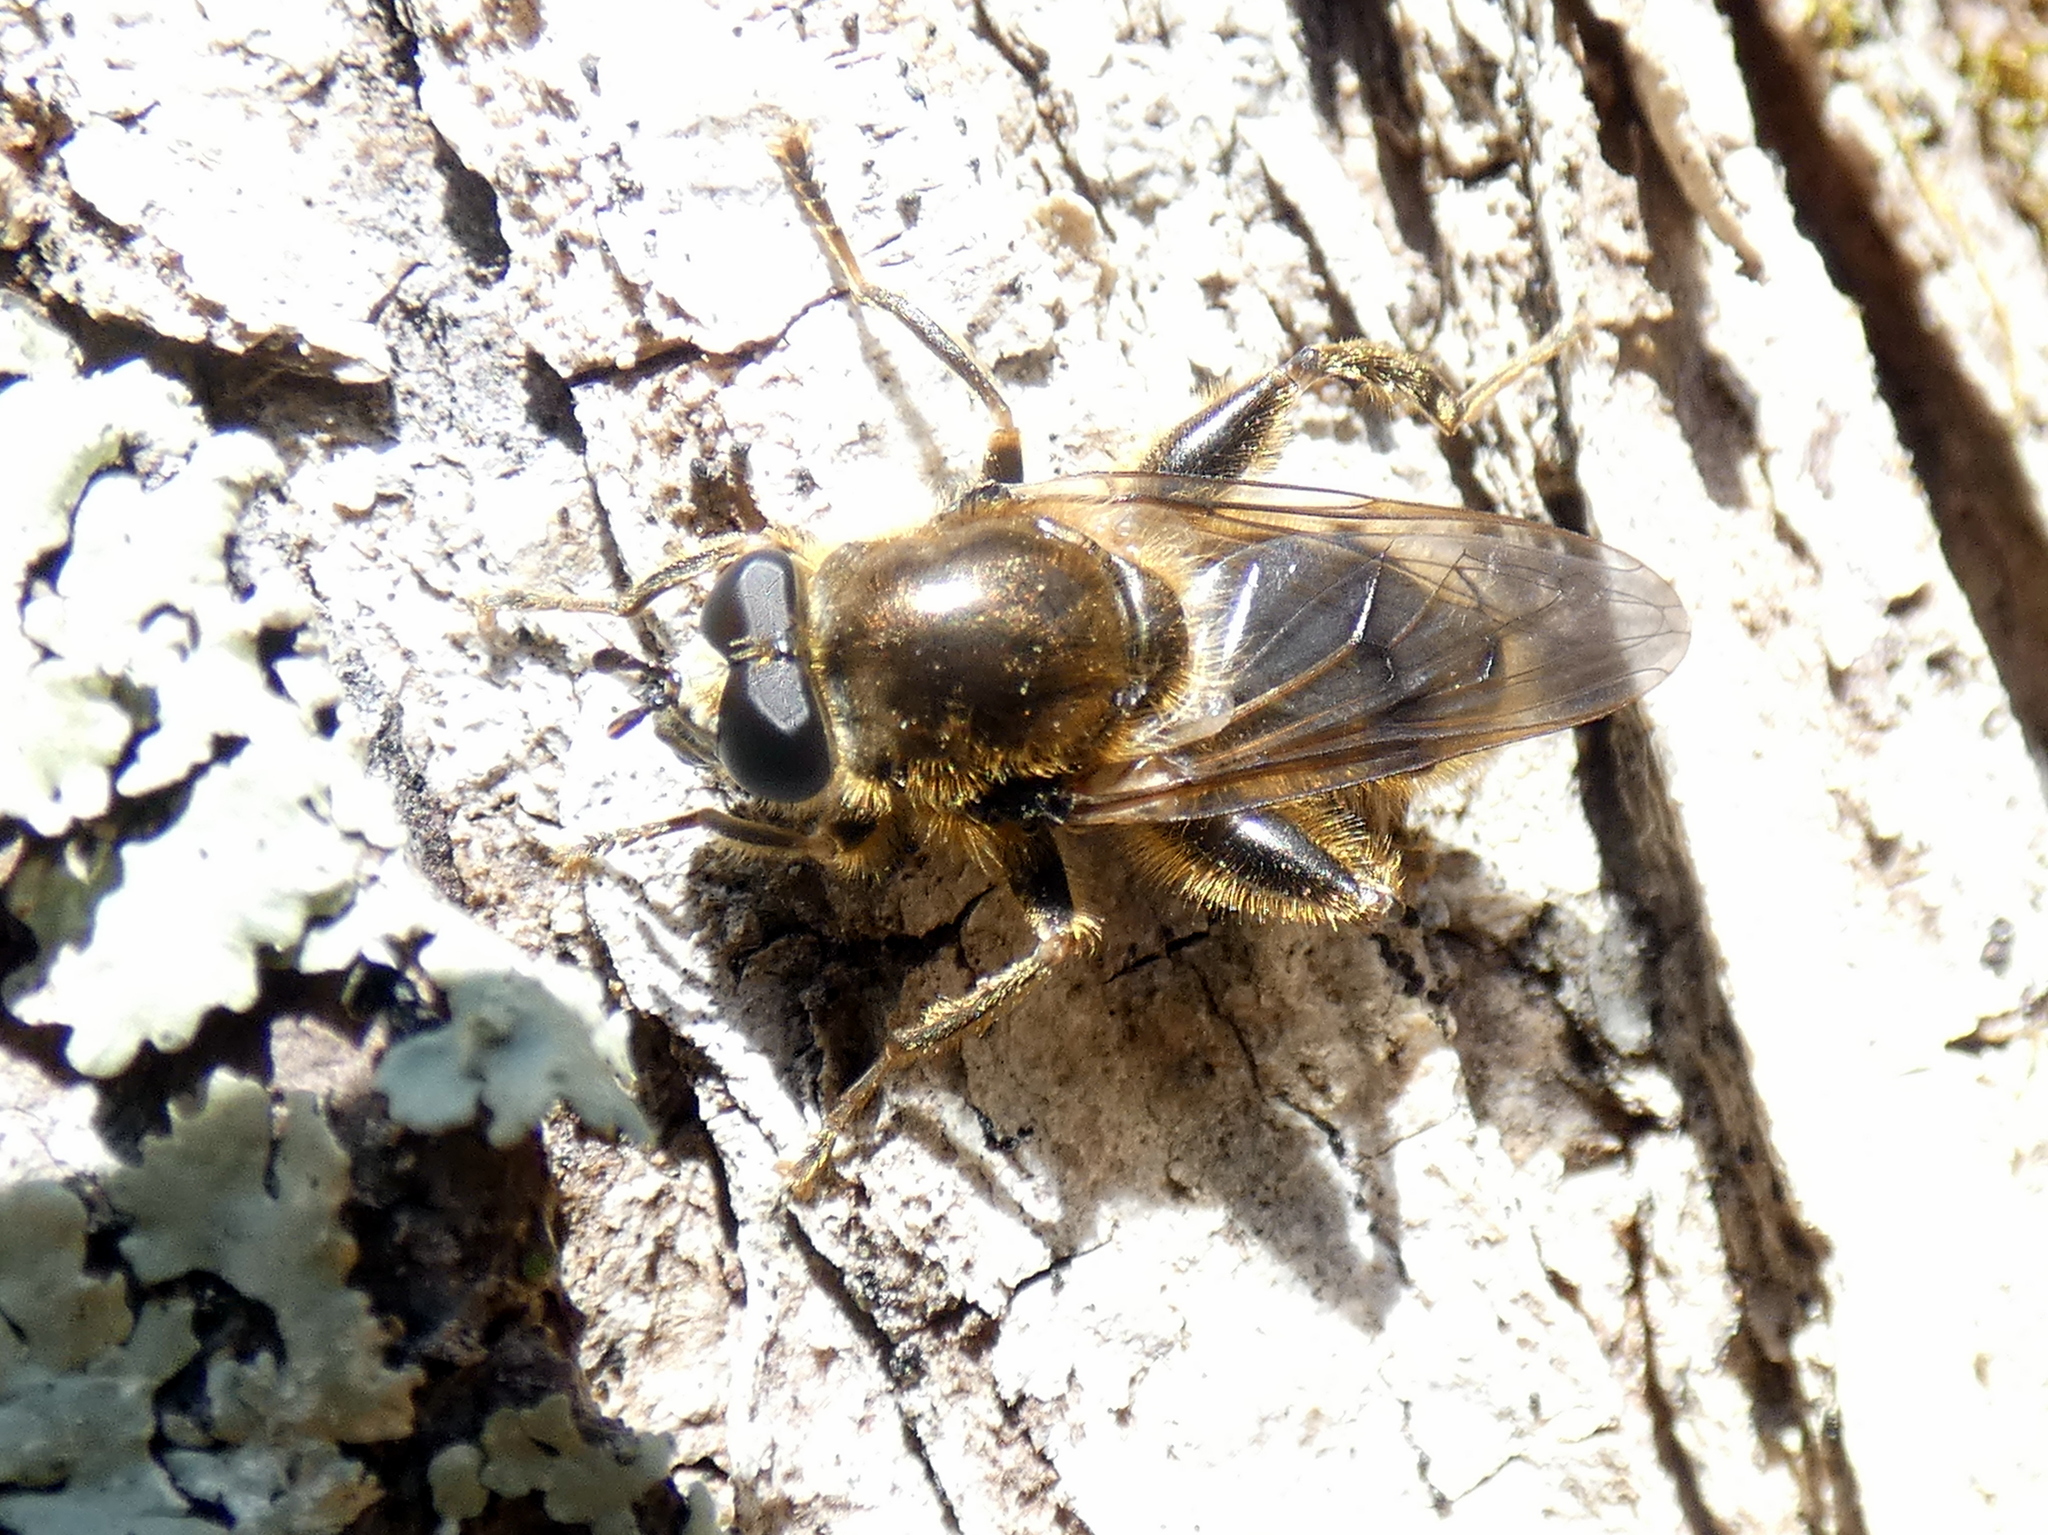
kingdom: Animalia
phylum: Arthropoda
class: Insecta
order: Diptera
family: Syrphidae
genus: Brachypalpus
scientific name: Brachypalpus oarus
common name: Eastern catkin fly
